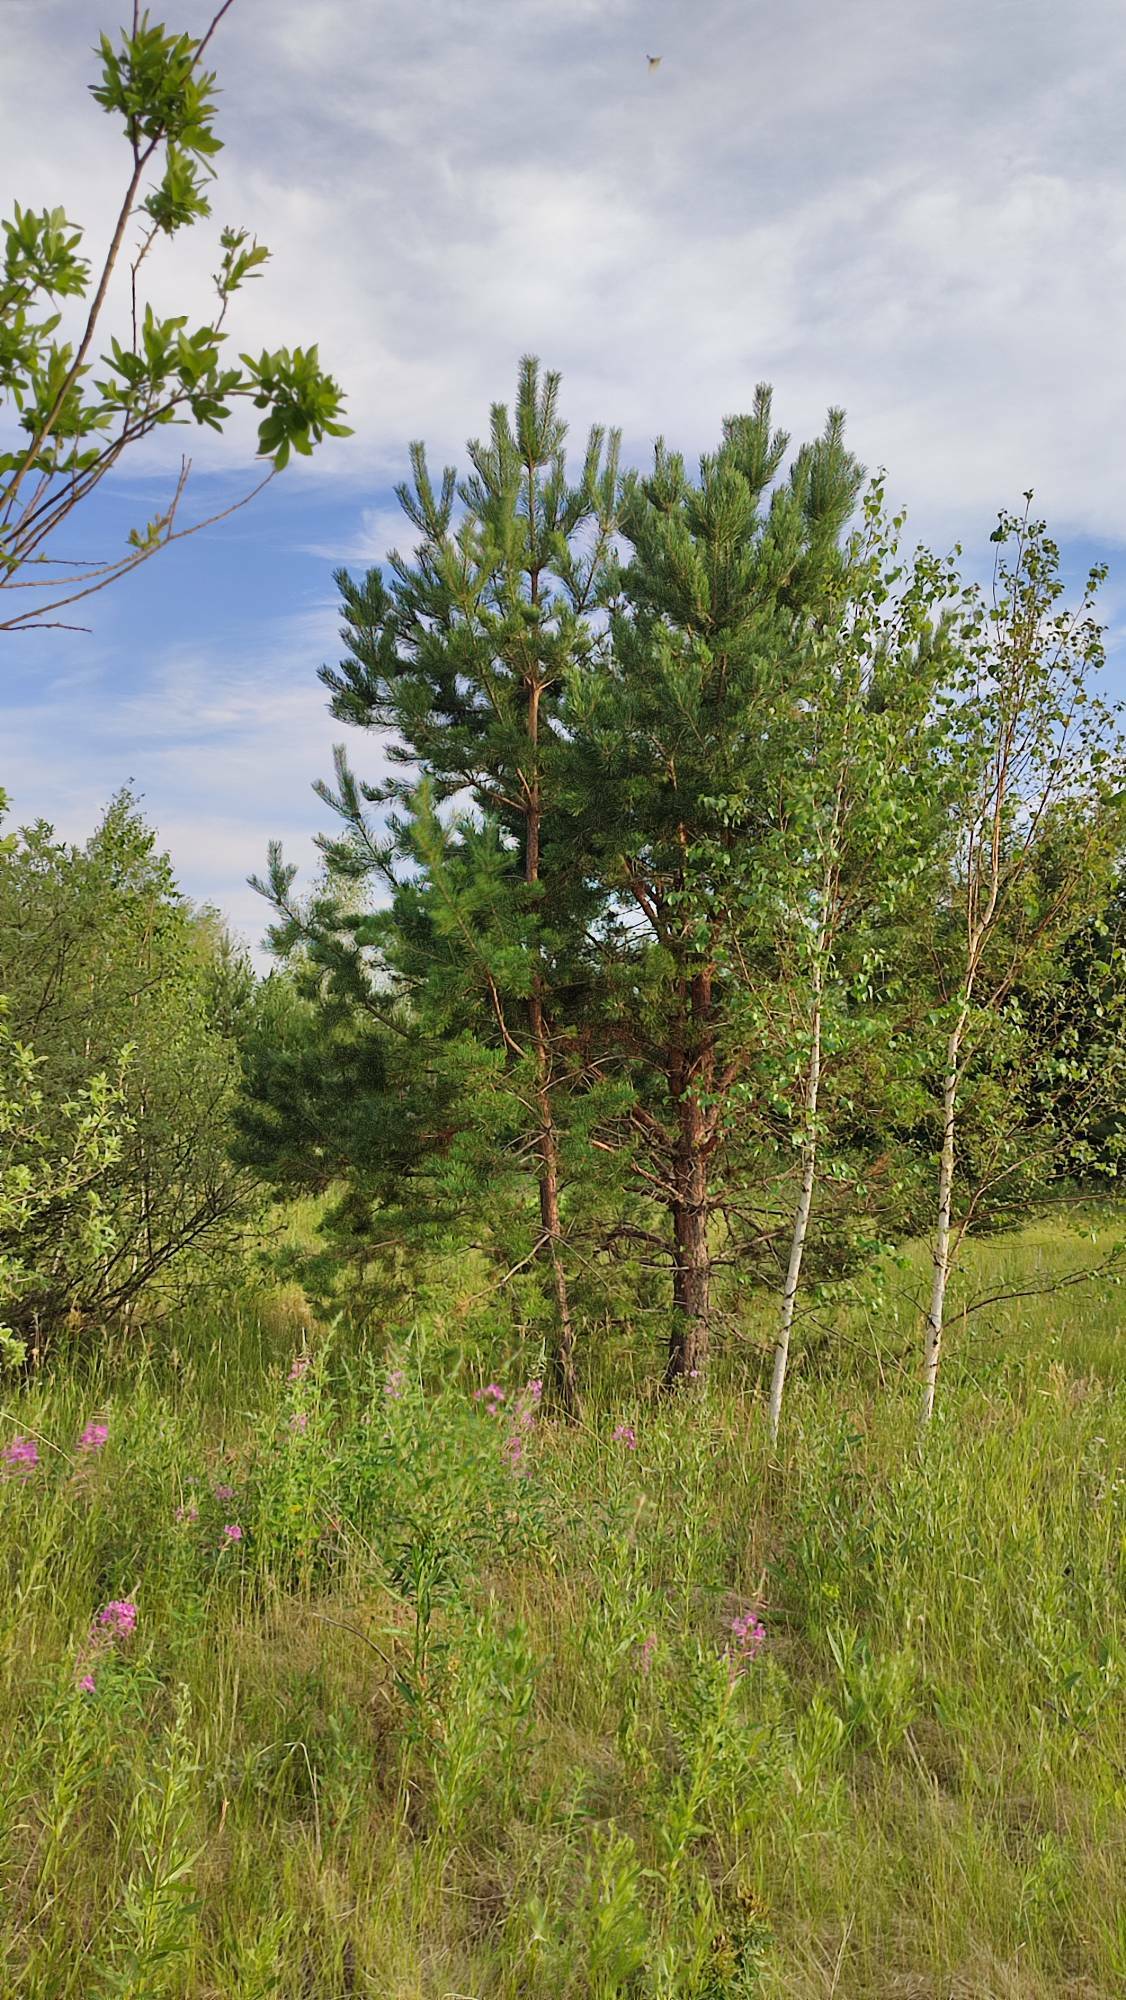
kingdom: Plantae
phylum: Tracheophyta
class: Pinopsida
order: Pinales
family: Pinaceae
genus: Pinus
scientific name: Pinus sylvestris
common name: Scots pine
